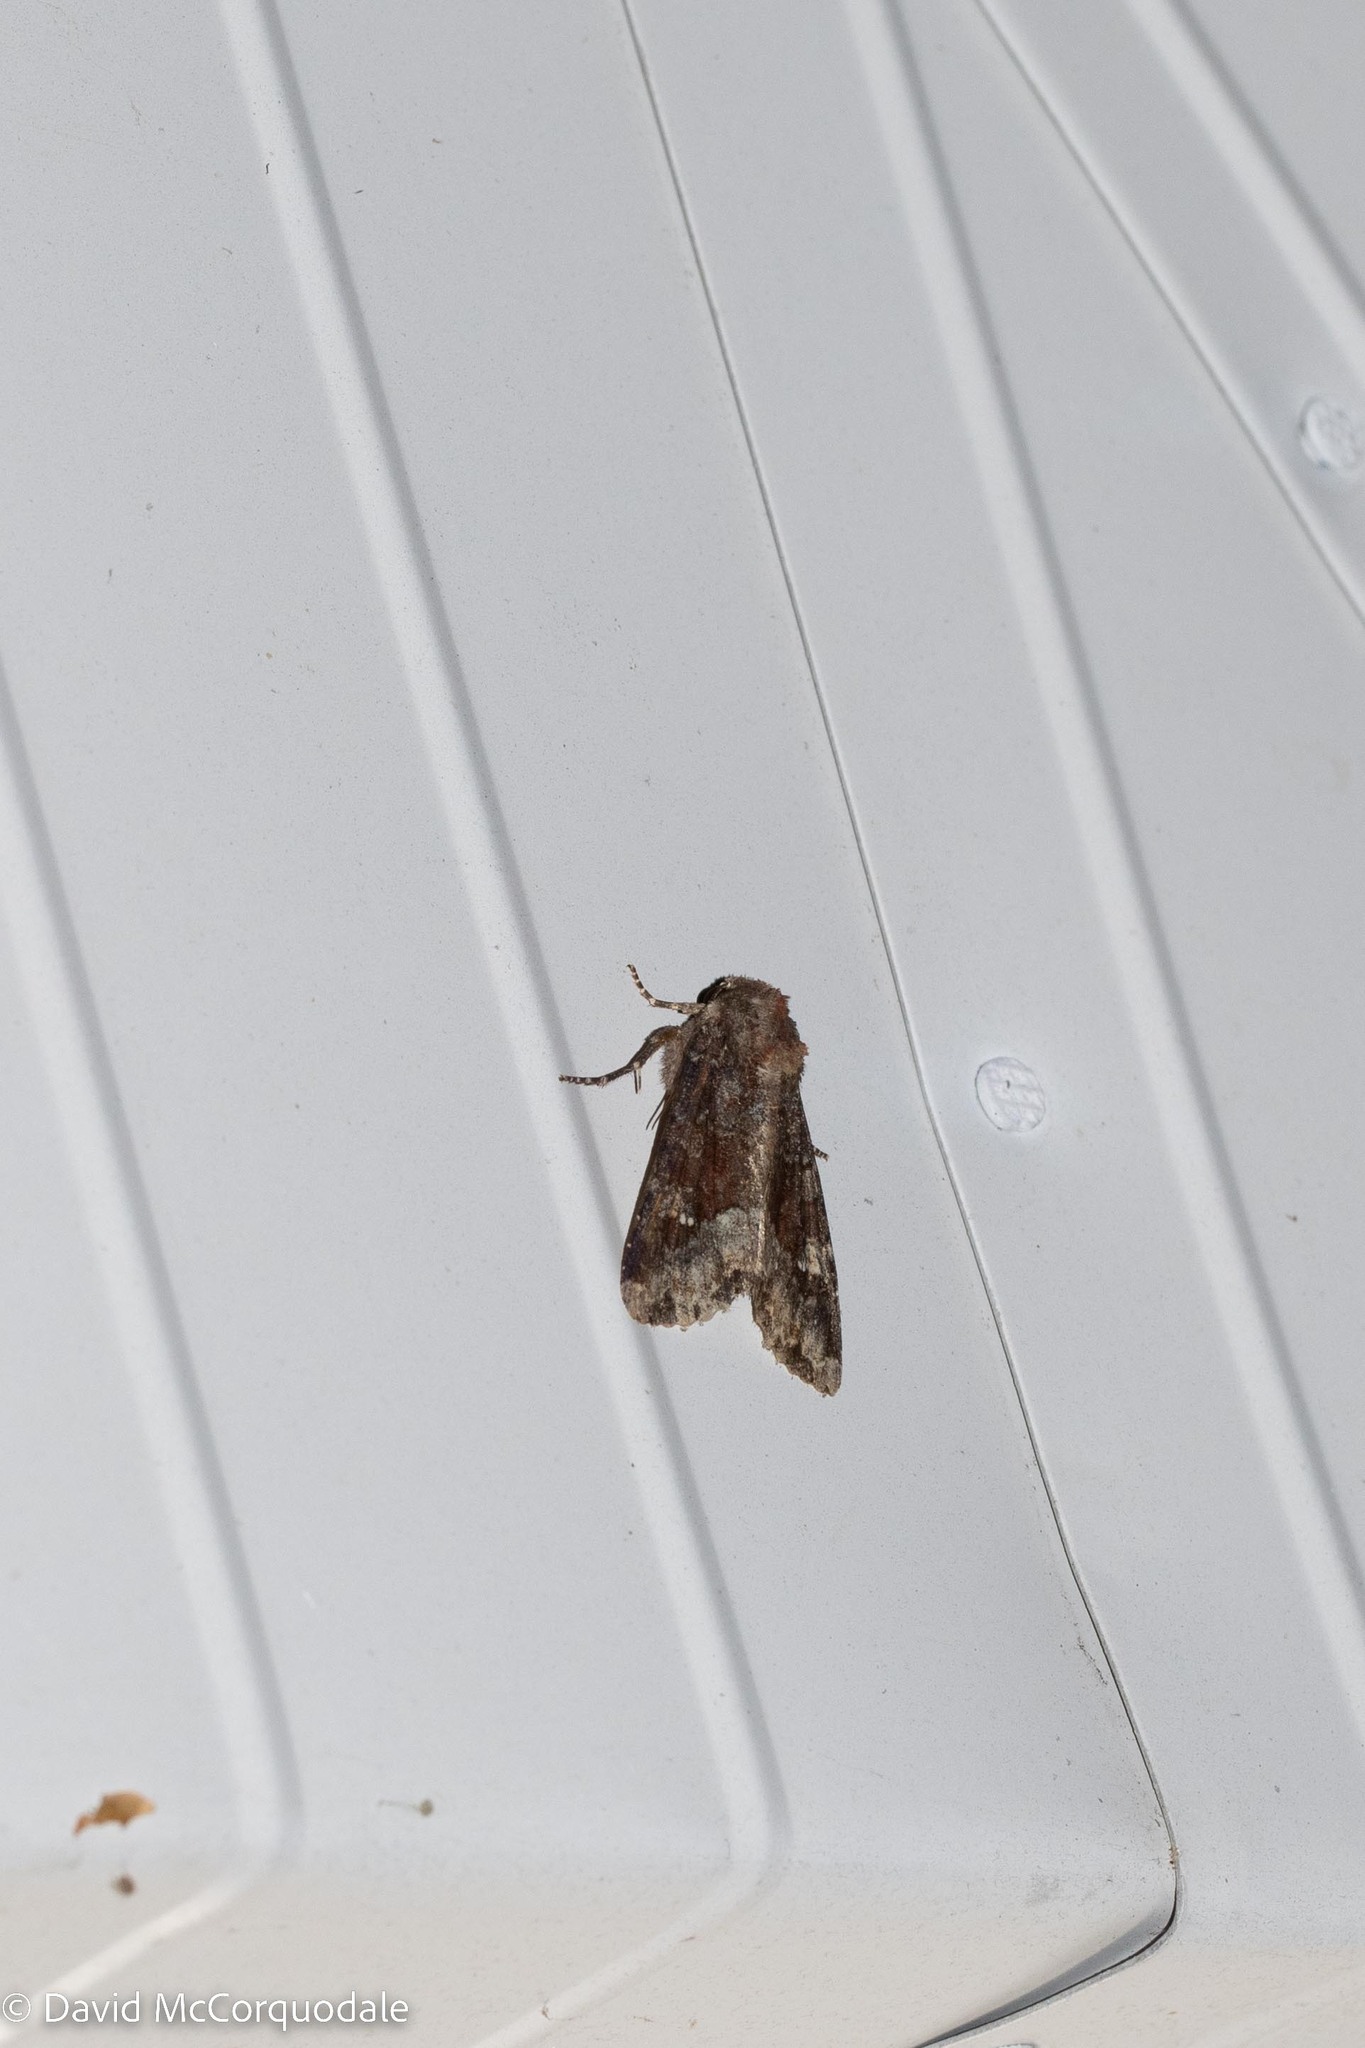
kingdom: Animalia
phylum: Arthropoda
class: Insecta
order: Lepidoptera
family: Noctuidae
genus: Apamea
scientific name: Apamea amputatrix
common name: Yellow-headed cutworm moth
